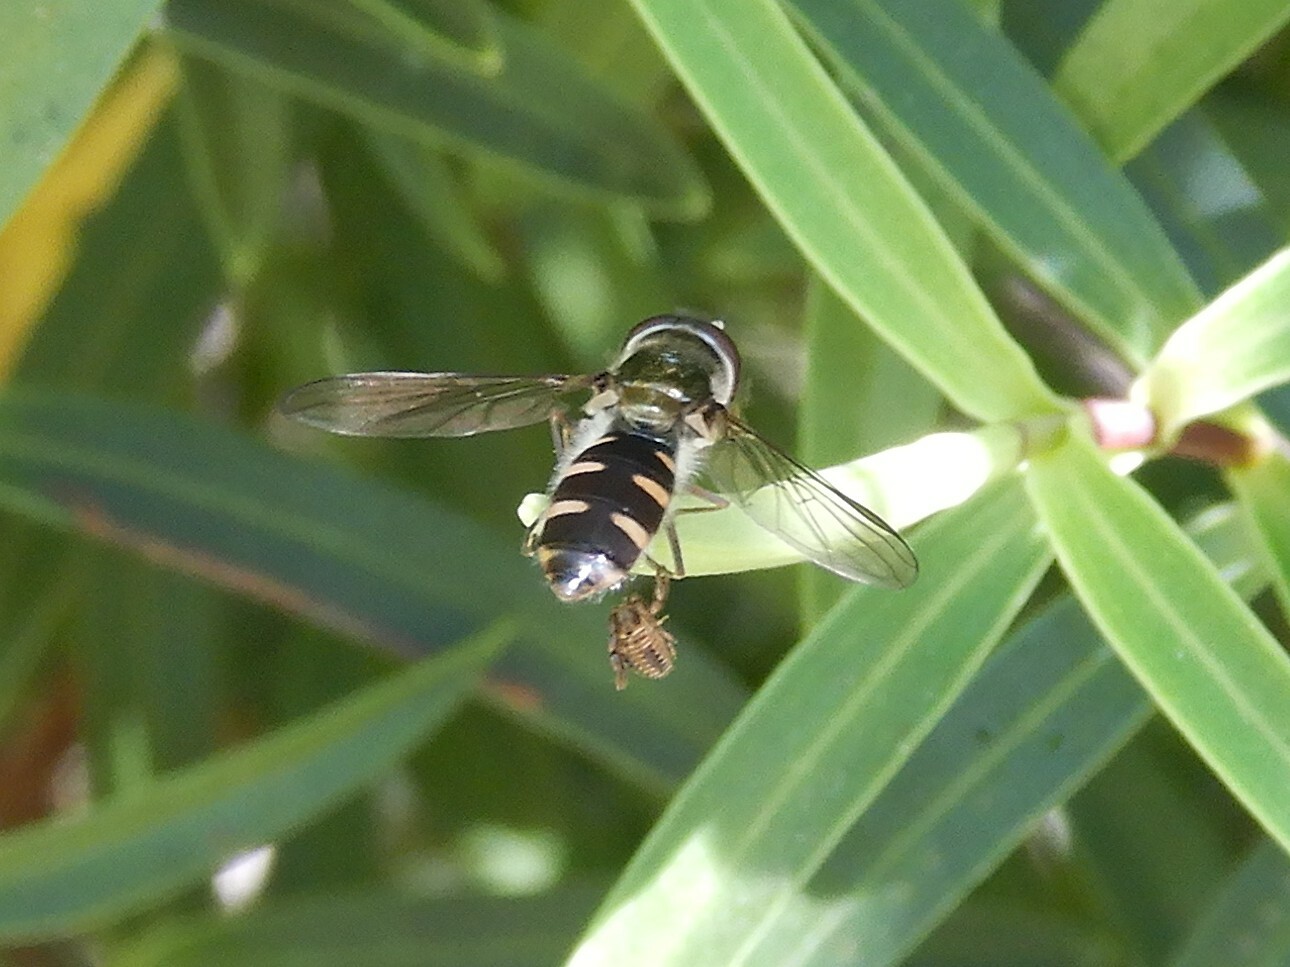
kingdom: Animalia
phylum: Arthropoda
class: Insecta
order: Diptera
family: Syrphidae
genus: Melangyna
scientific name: Melangyna novaezelandiae
